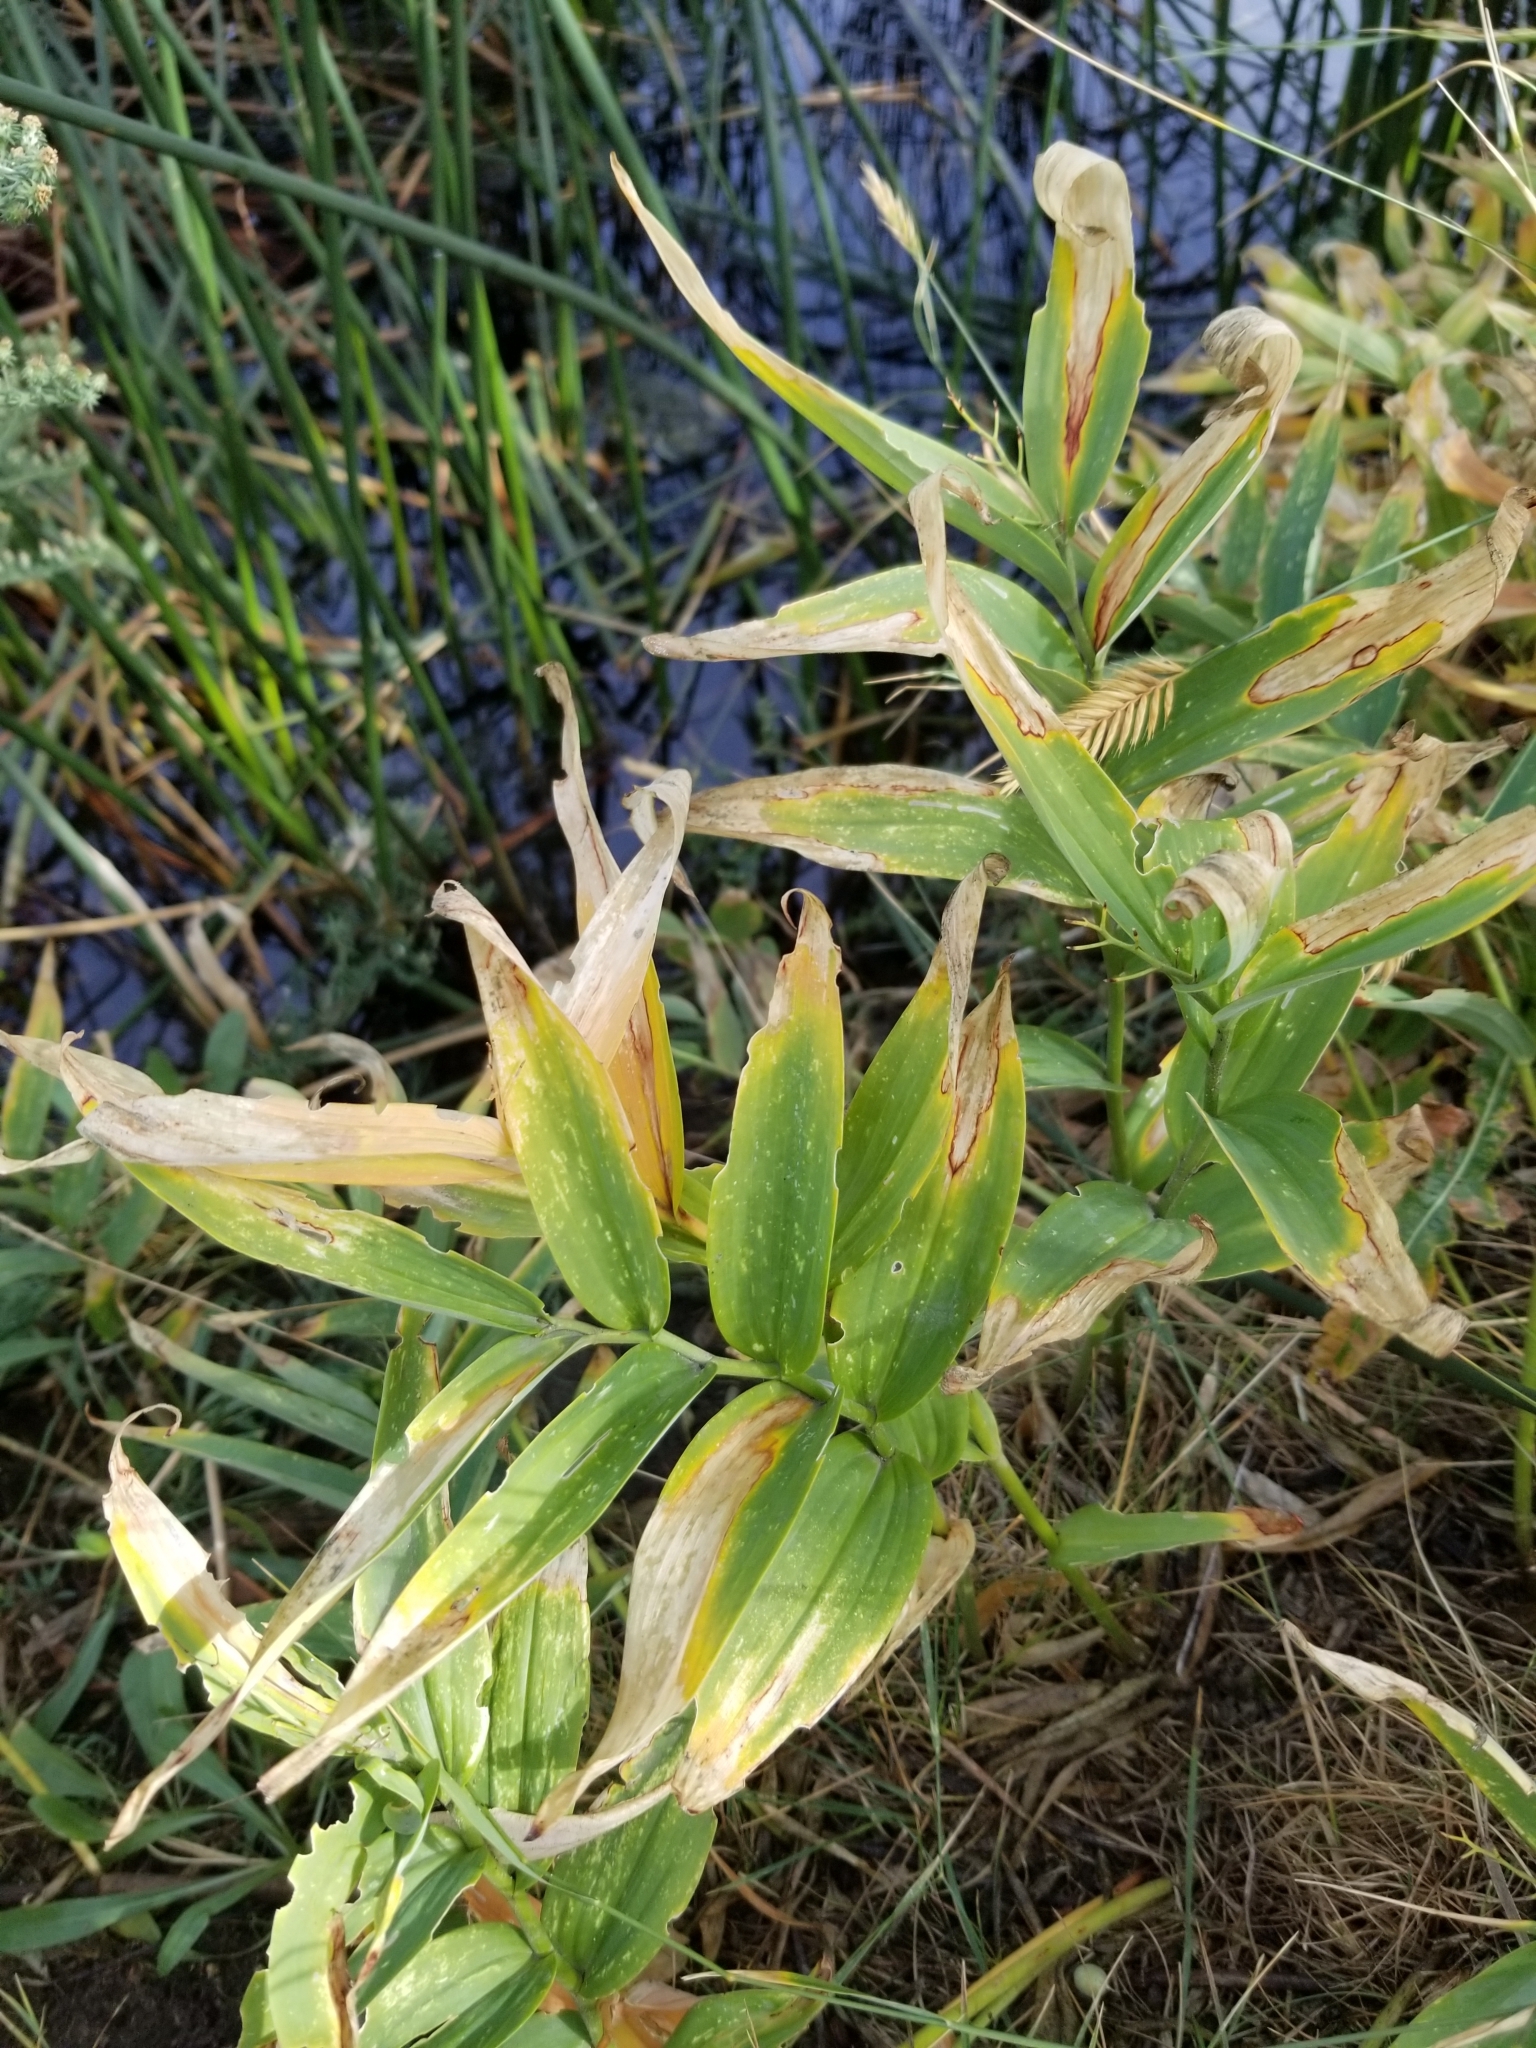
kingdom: Plantae
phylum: Tracheophyta
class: Liliopsida
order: Asparagales
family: Asparagaceae
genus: Maianthemum
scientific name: Maianthemum stellatum
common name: Little false solomon's seal
